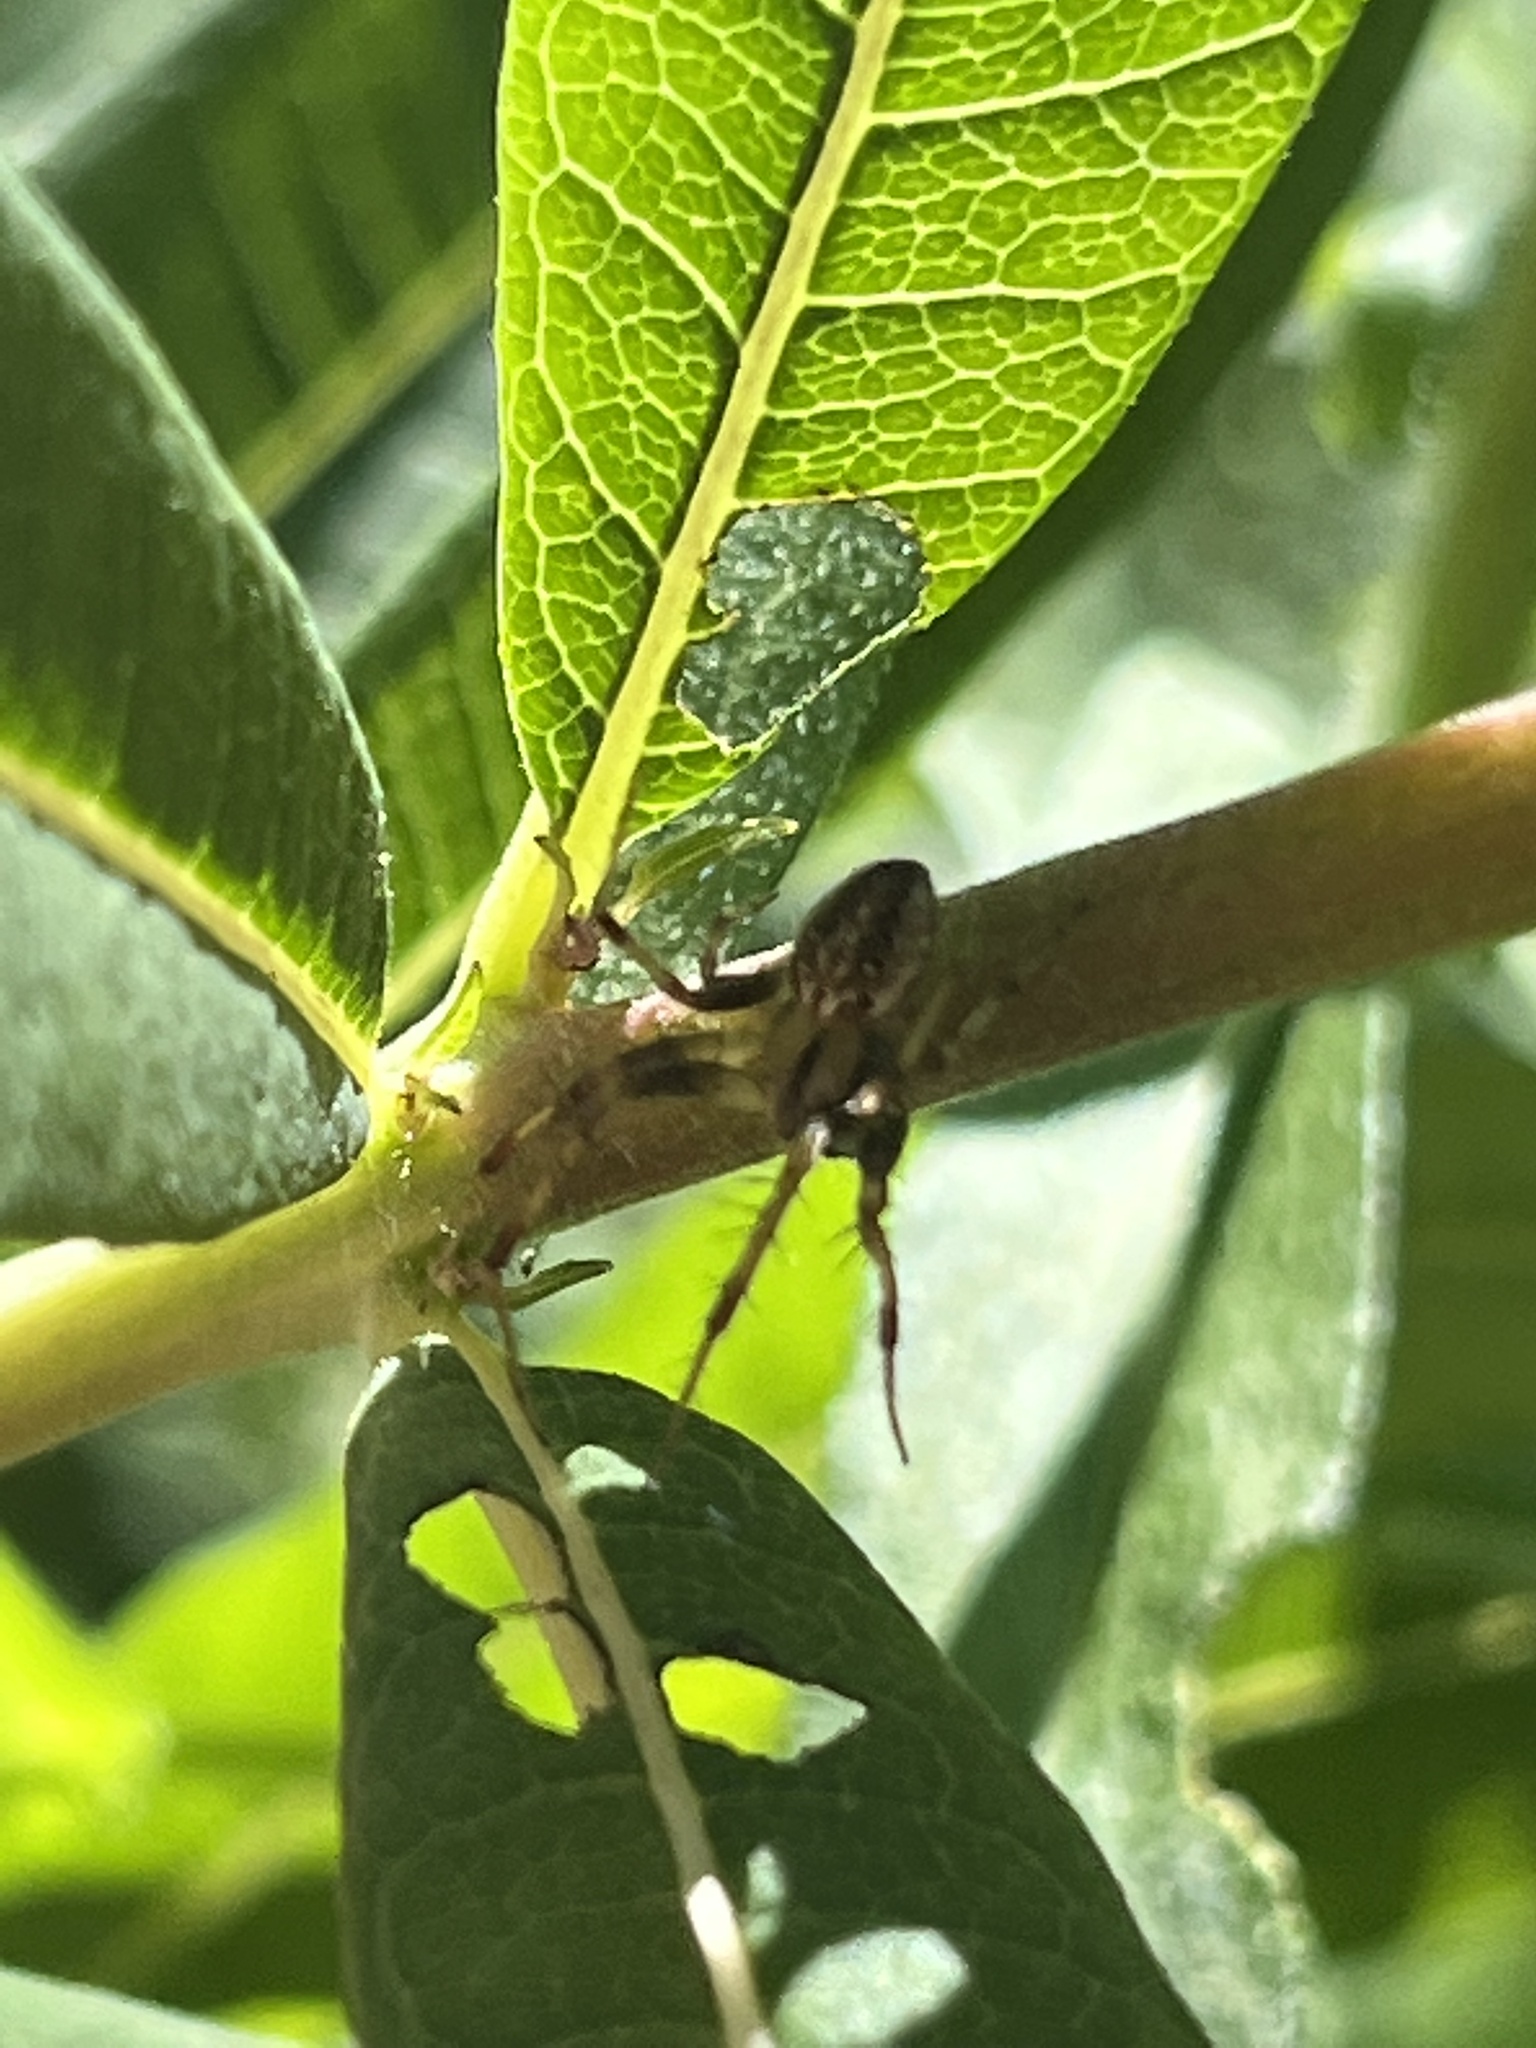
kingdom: Animalia
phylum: Arthropoda
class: Arachnida
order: Araneae
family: Araneidae
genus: Neoscona
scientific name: Neoscona arabesca
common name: Orb weavers
